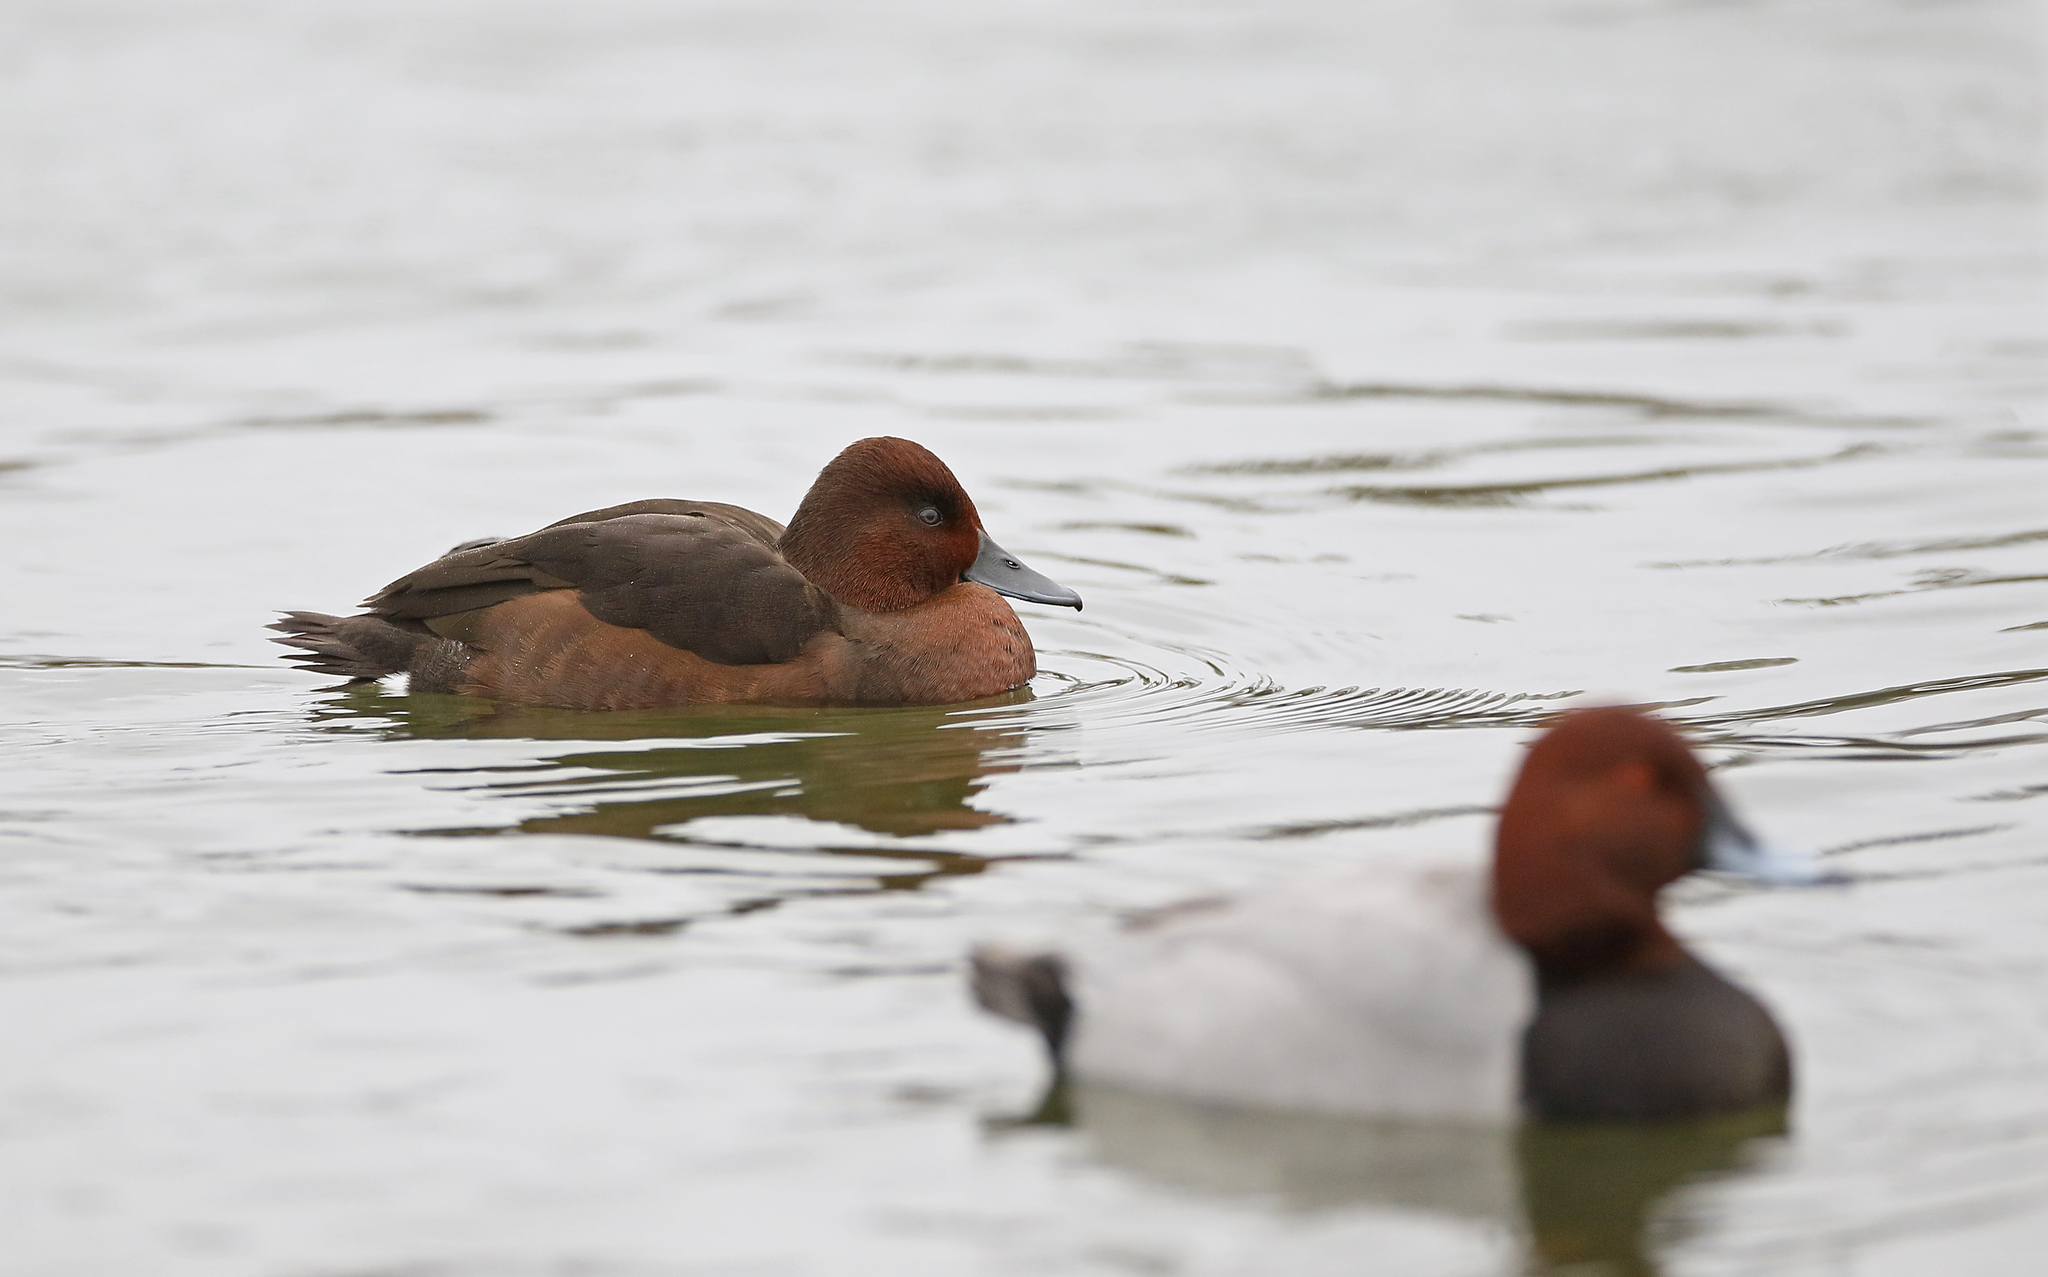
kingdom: Animalia
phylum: Chordata
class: Aves
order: Anseriformes
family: Anatidae
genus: Aythya
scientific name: Aythya nyroca
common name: Ferruginous duck
